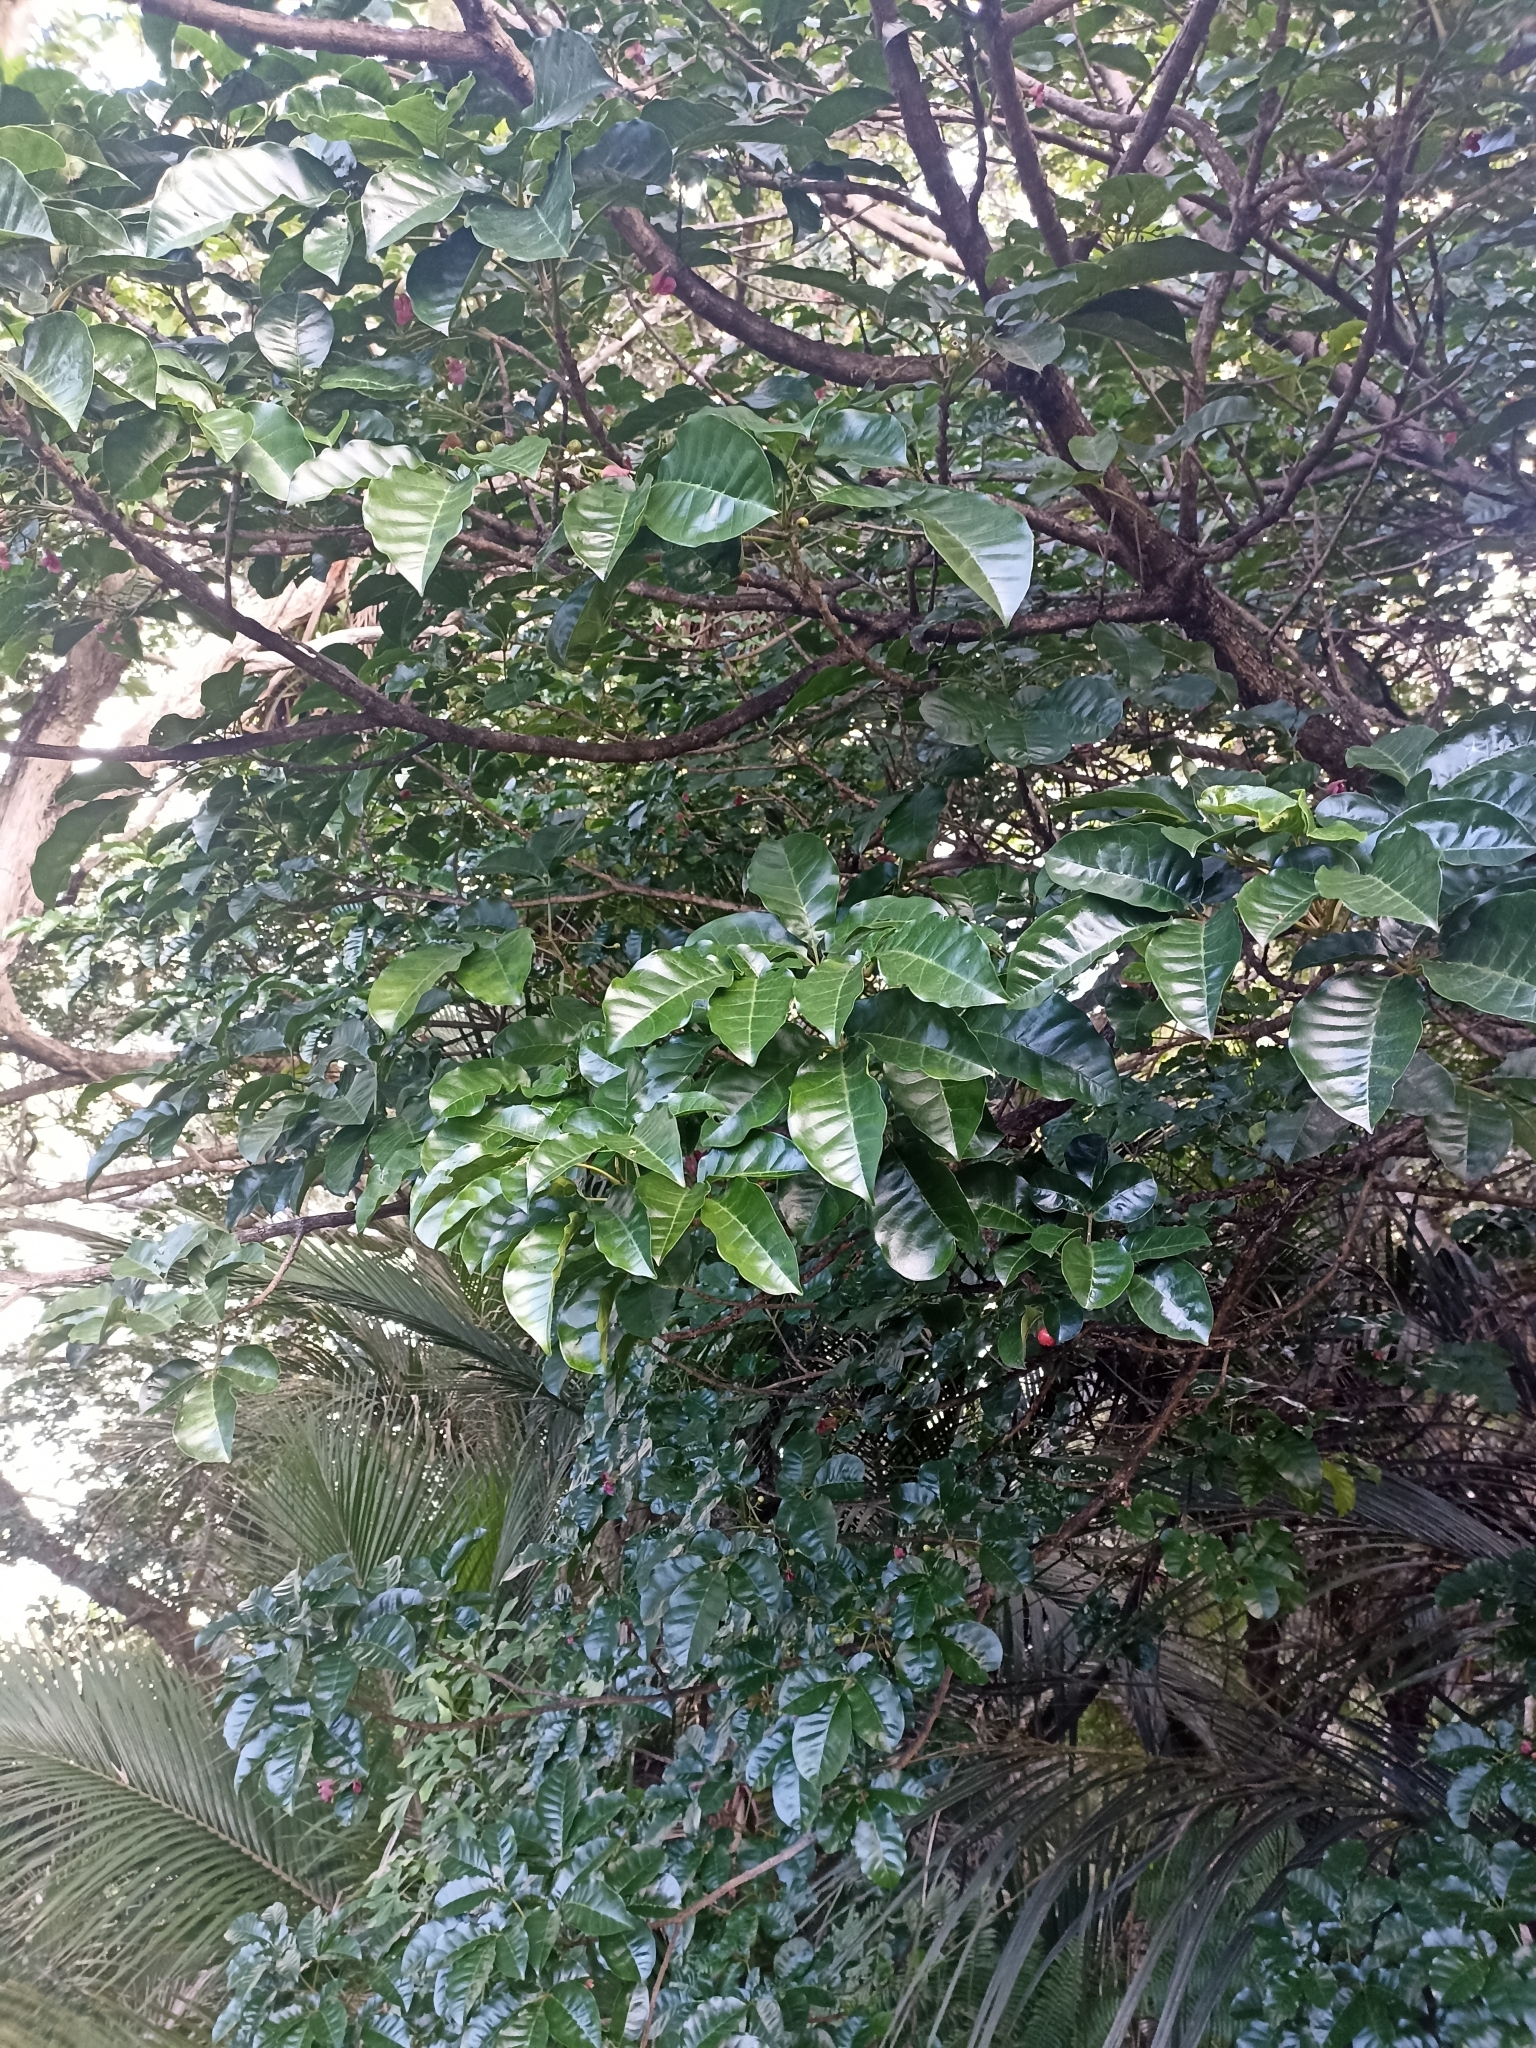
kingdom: Plantae
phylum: Tracheophyta
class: Magnoliopsida
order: Lamiales
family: Lamiaceae
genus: Vitex
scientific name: Vitex lucens
